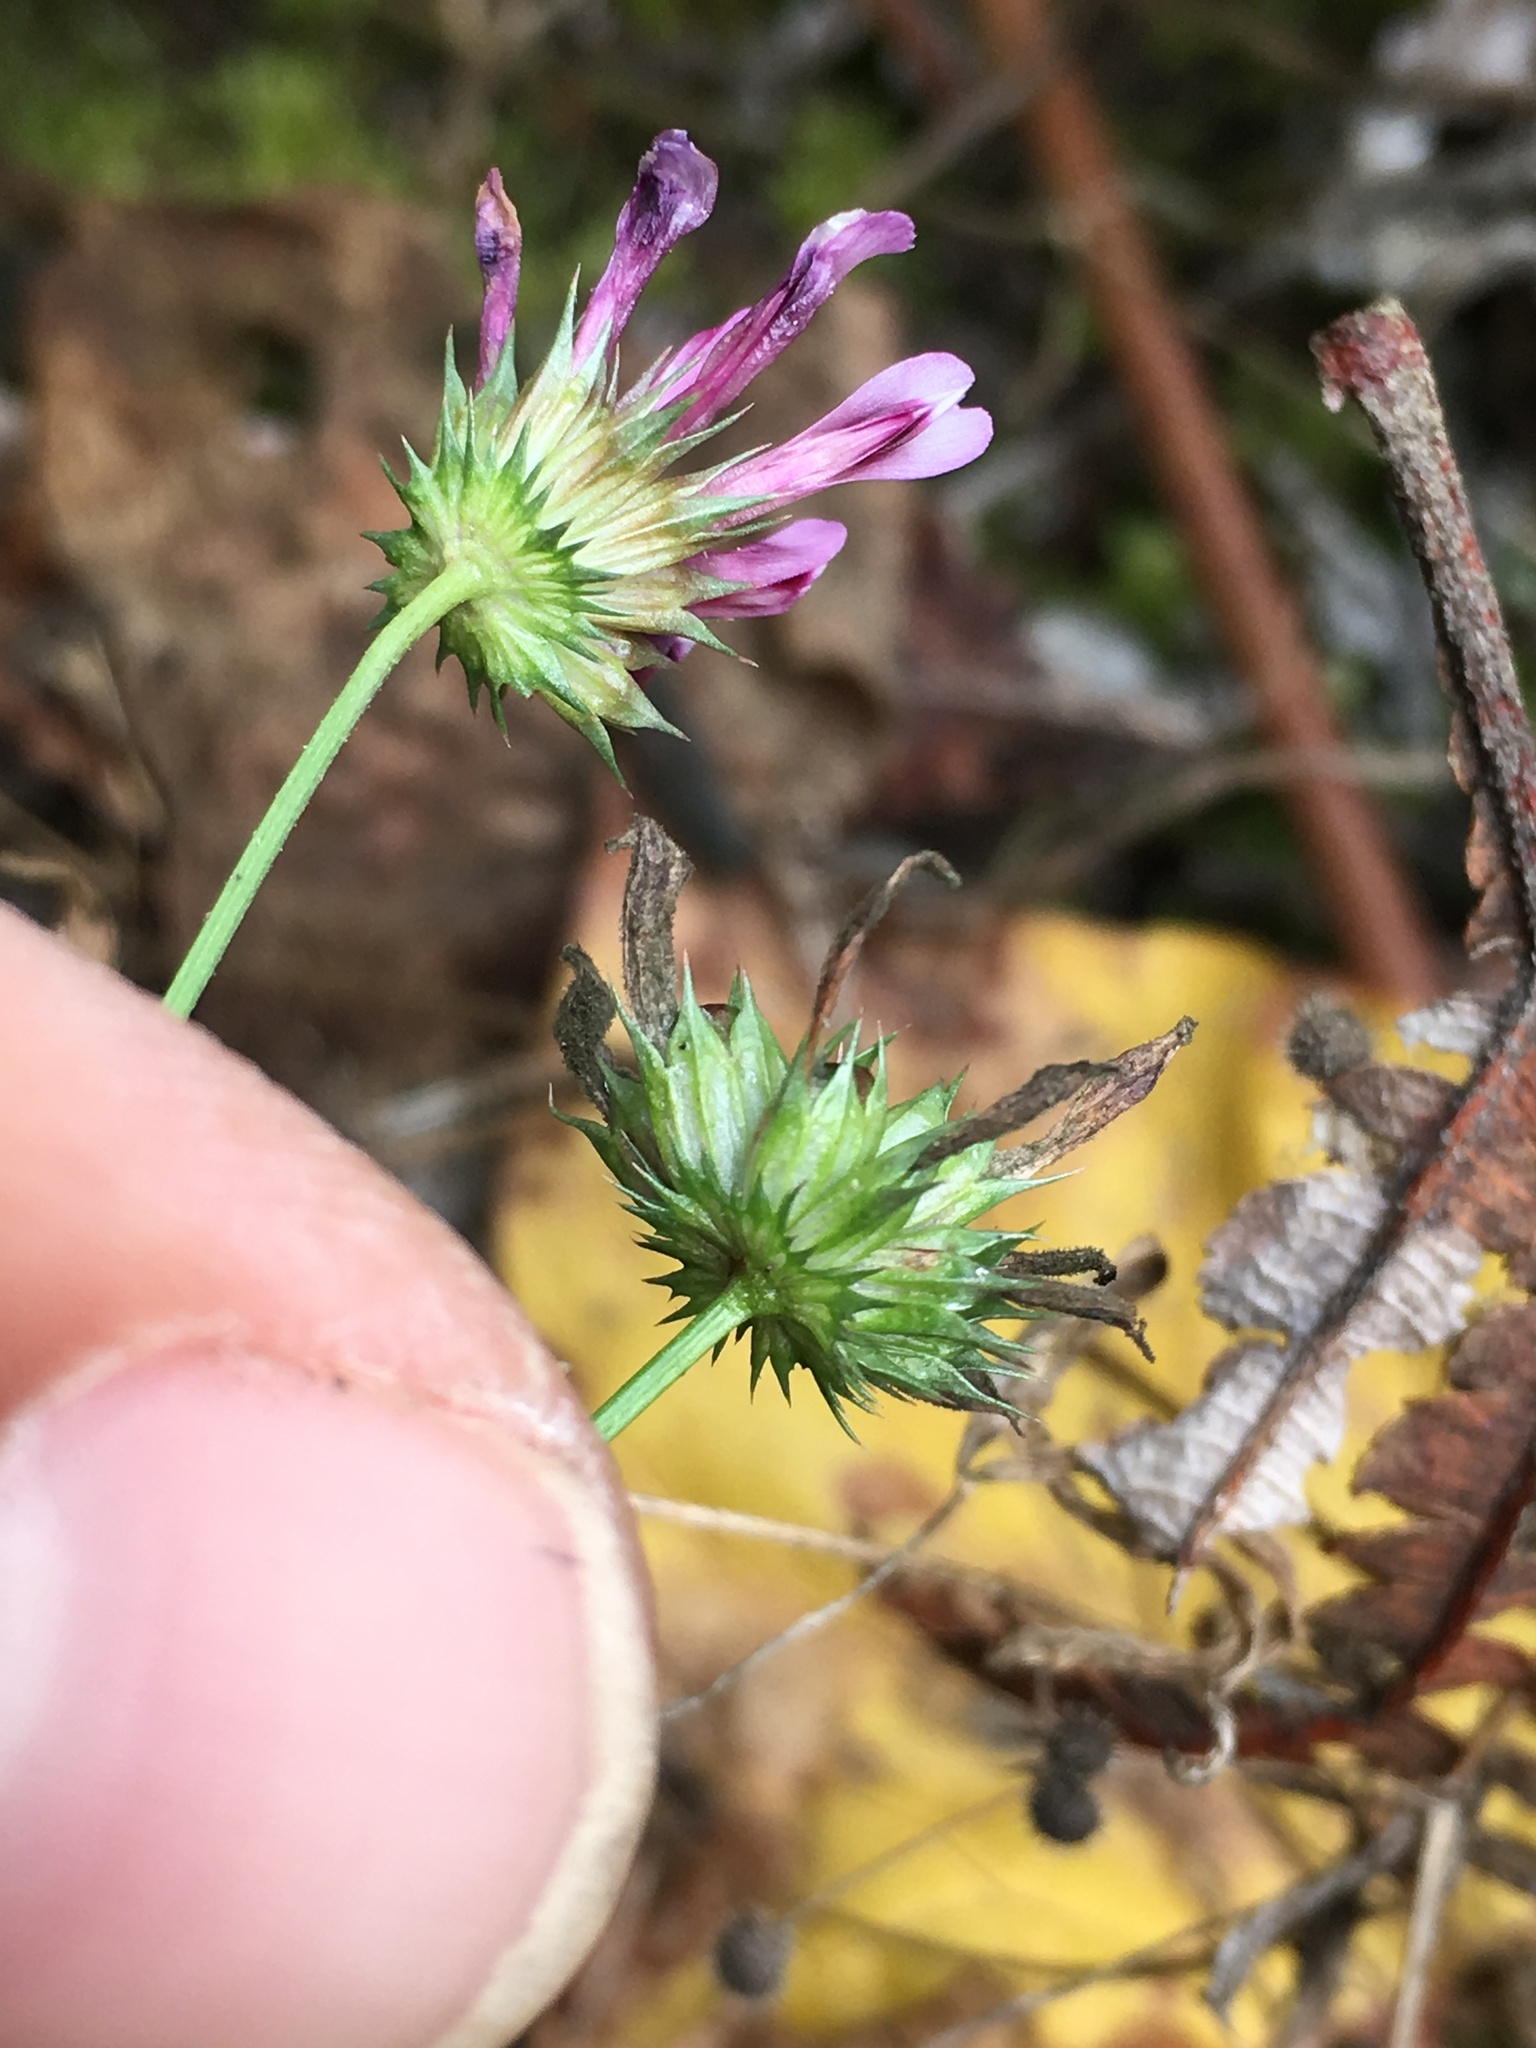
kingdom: Plantae
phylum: Tracheophyta
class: Magnoliopsida
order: Fabales
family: Fabaceae
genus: Trifolium
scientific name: Trifolium willdenovii
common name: Tomcat clover
